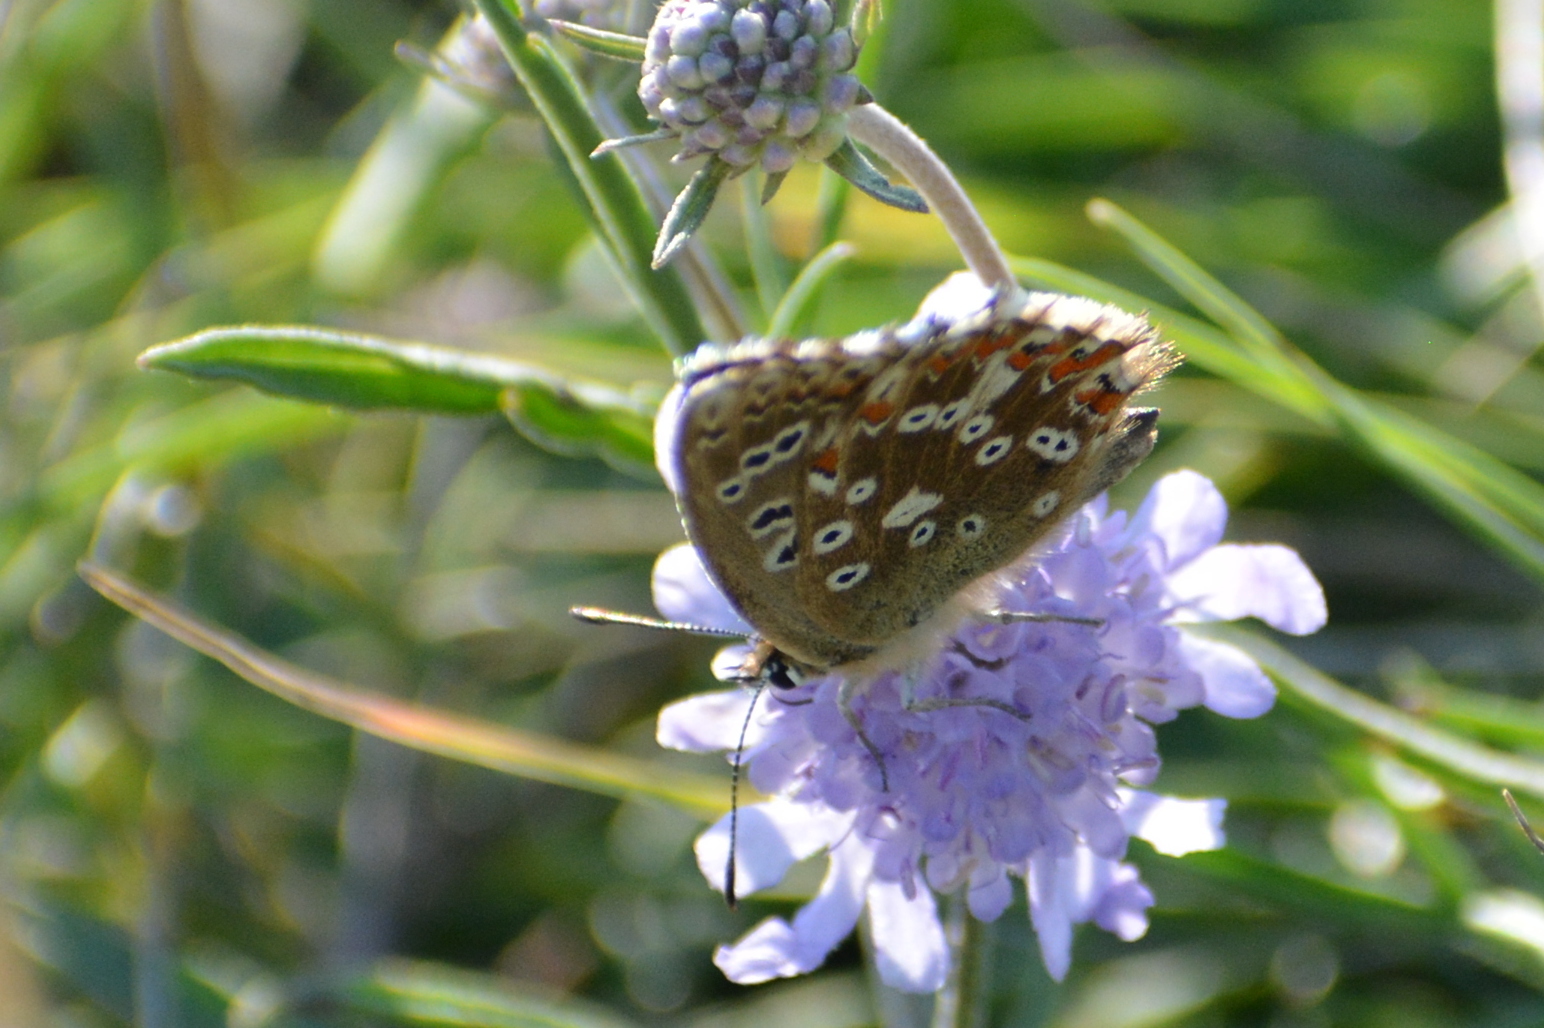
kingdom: Animalia
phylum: Arthropoda
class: Insecta
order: Lepidoptera
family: Lycaenidae
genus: Lysandra
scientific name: Lysandra coridon
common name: Chalkhill blue
